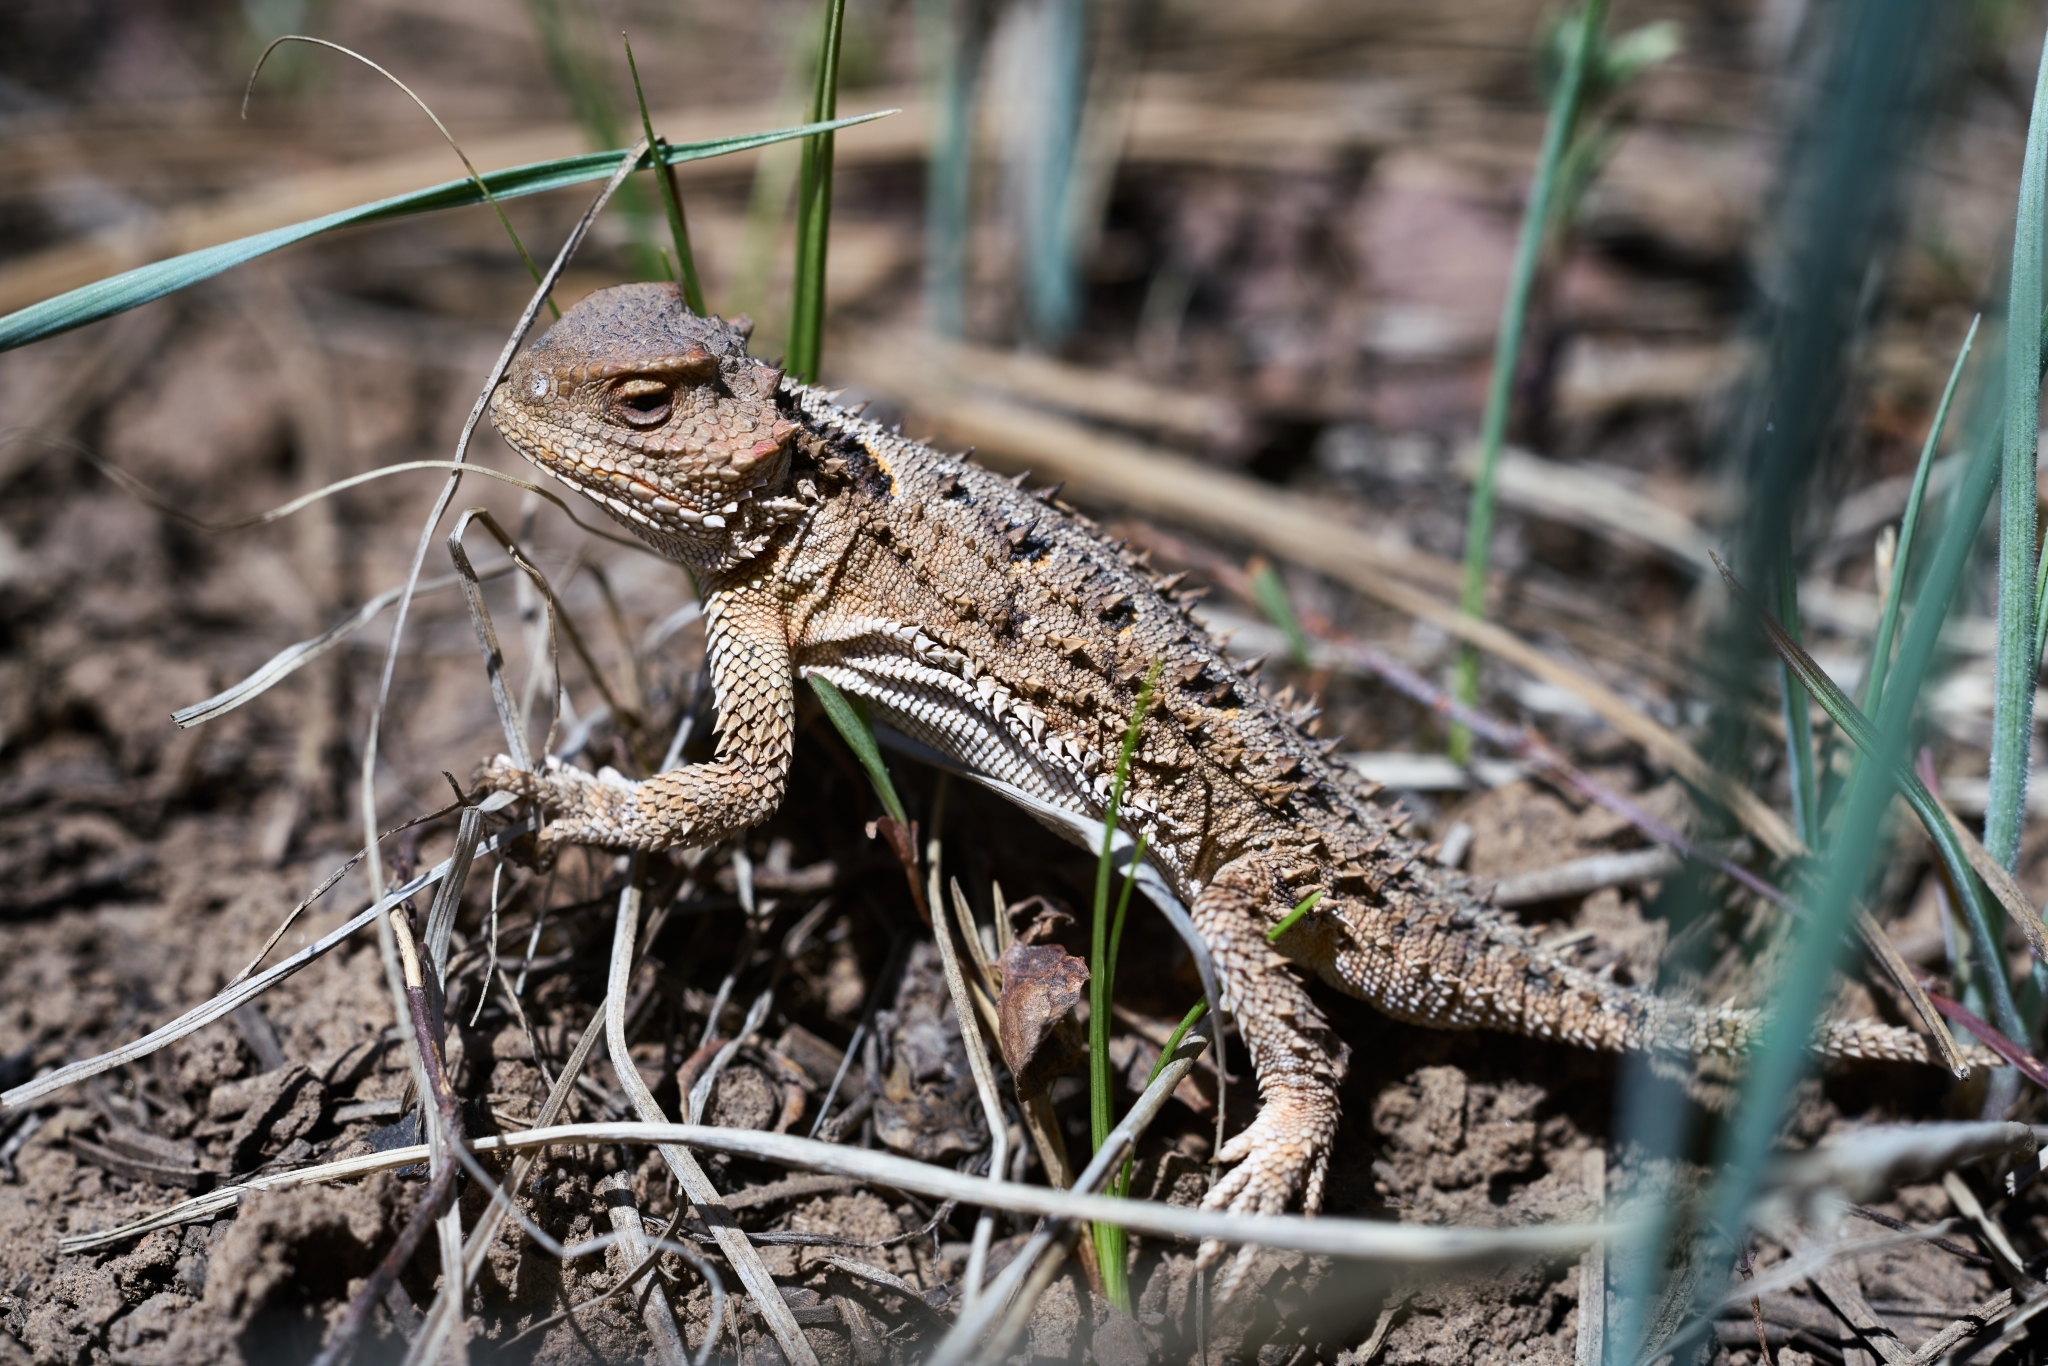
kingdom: Animalia
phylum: Chordata
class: Squamata
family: Phrynosomatidae
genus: Phrynosoma
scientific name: Phrynosoma hernandesi
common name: Greater short-horned lizard
